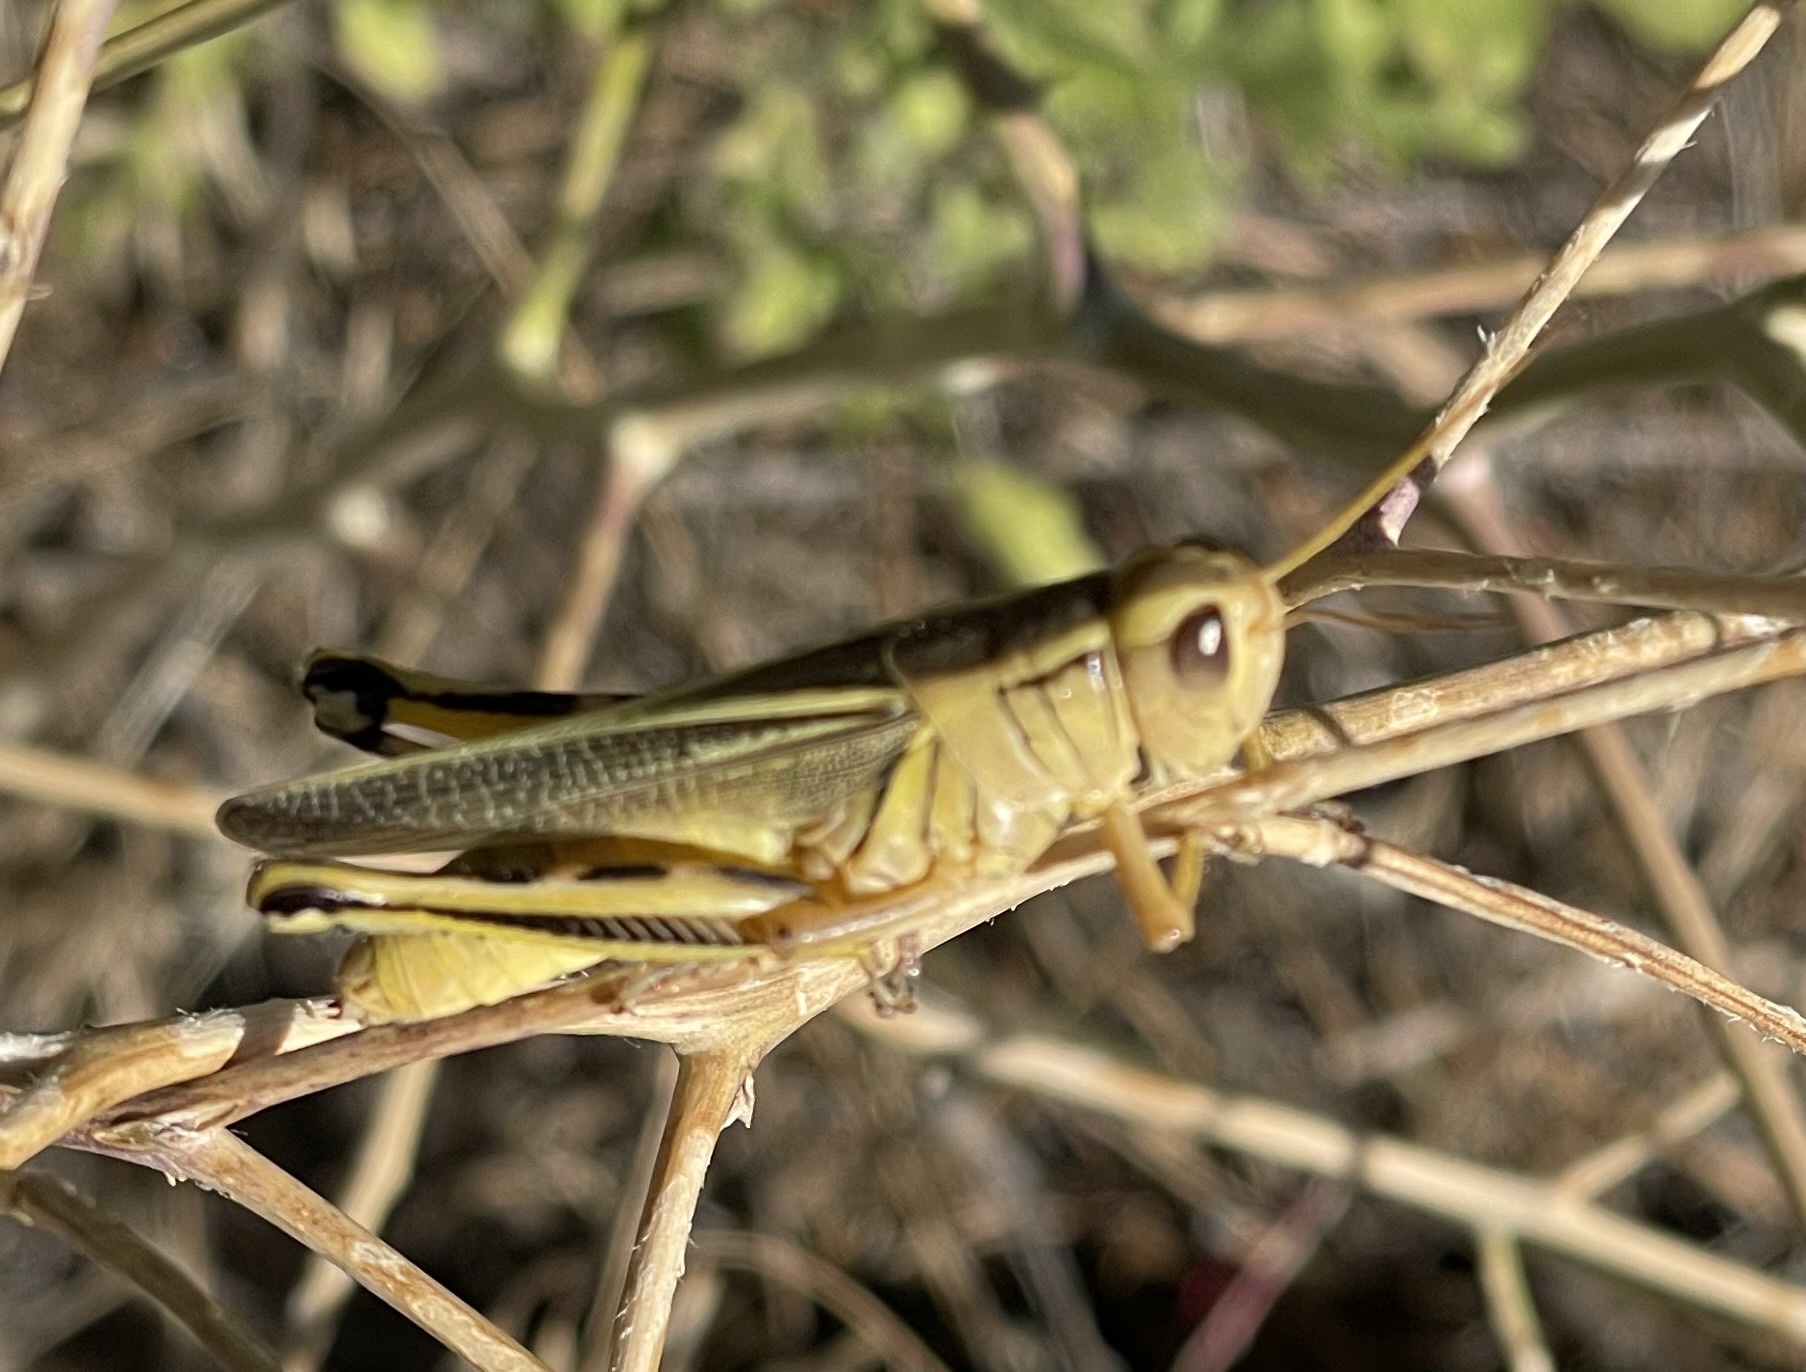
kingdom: Animalia
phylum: Arthropoda
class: Insecta
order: Orthoptera
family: Acrididae
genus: Melanoplus
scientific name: Melanoplus bivittatus
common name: Two-striped grasshopper
